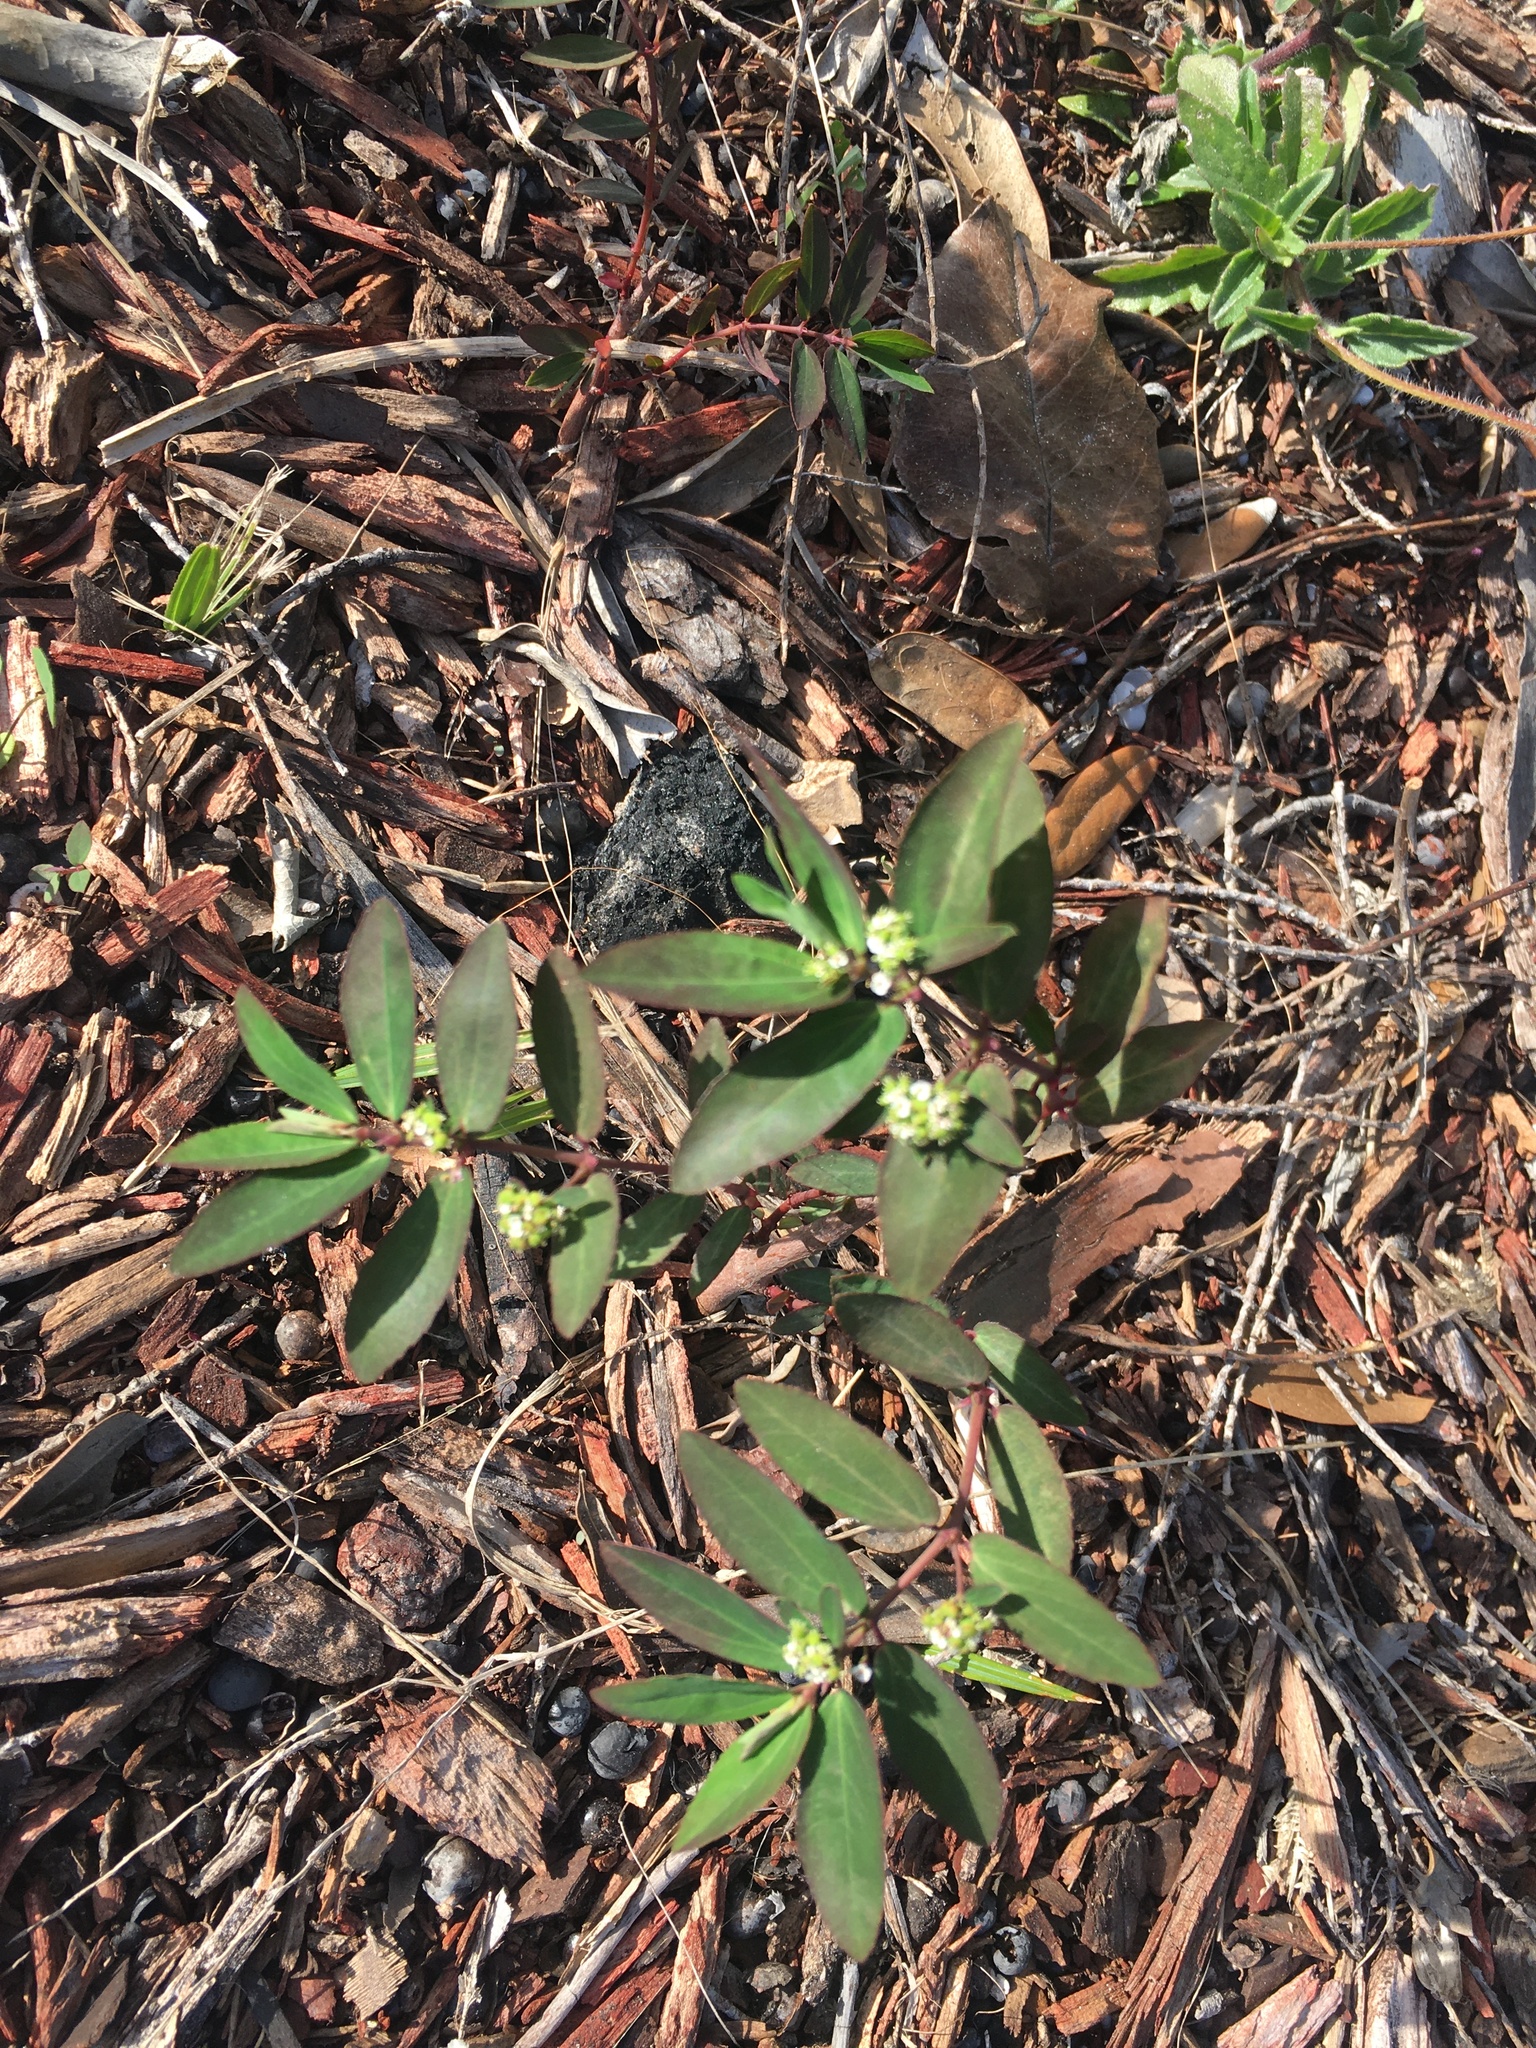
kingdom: Plantae
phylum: Tracheophyta
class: Magnoliopsida
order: Malpighiales
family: Euphorbiaceae
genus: Euphorbia
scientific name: Euphorbia hypericifolia
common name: Graceful sandmat
